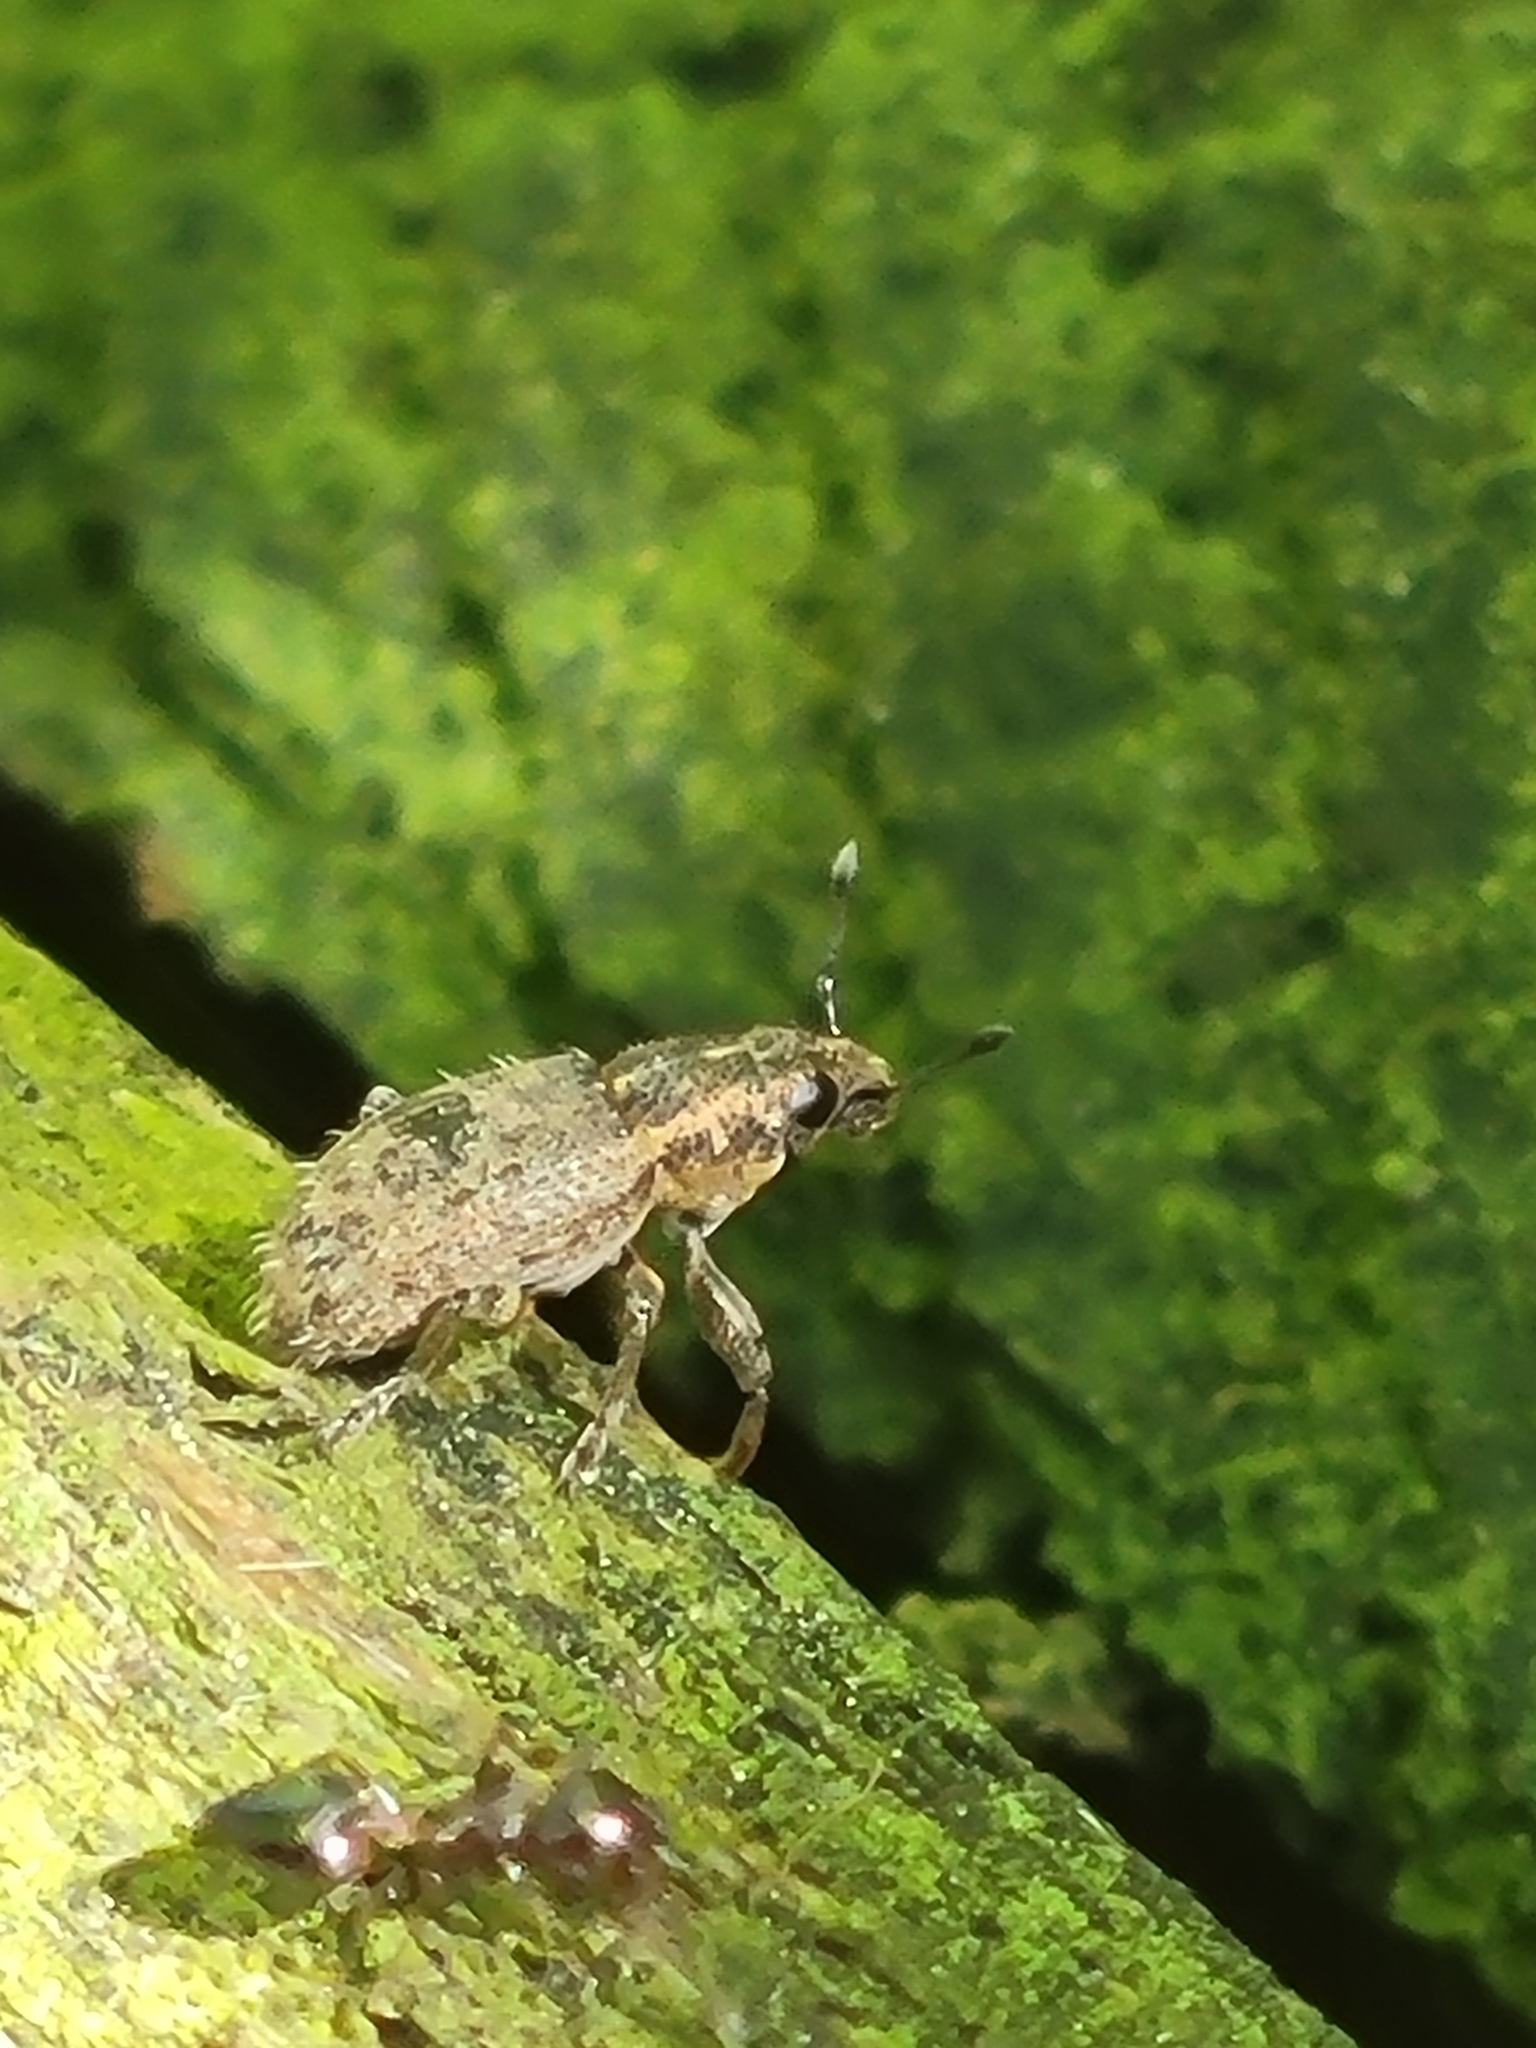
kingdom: Animalia
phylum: Arthropoda
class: Insecta
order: Coleoptera
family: Curculionidae
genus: Sitona
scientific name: Sitona hispidulus
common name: Clover weevil
